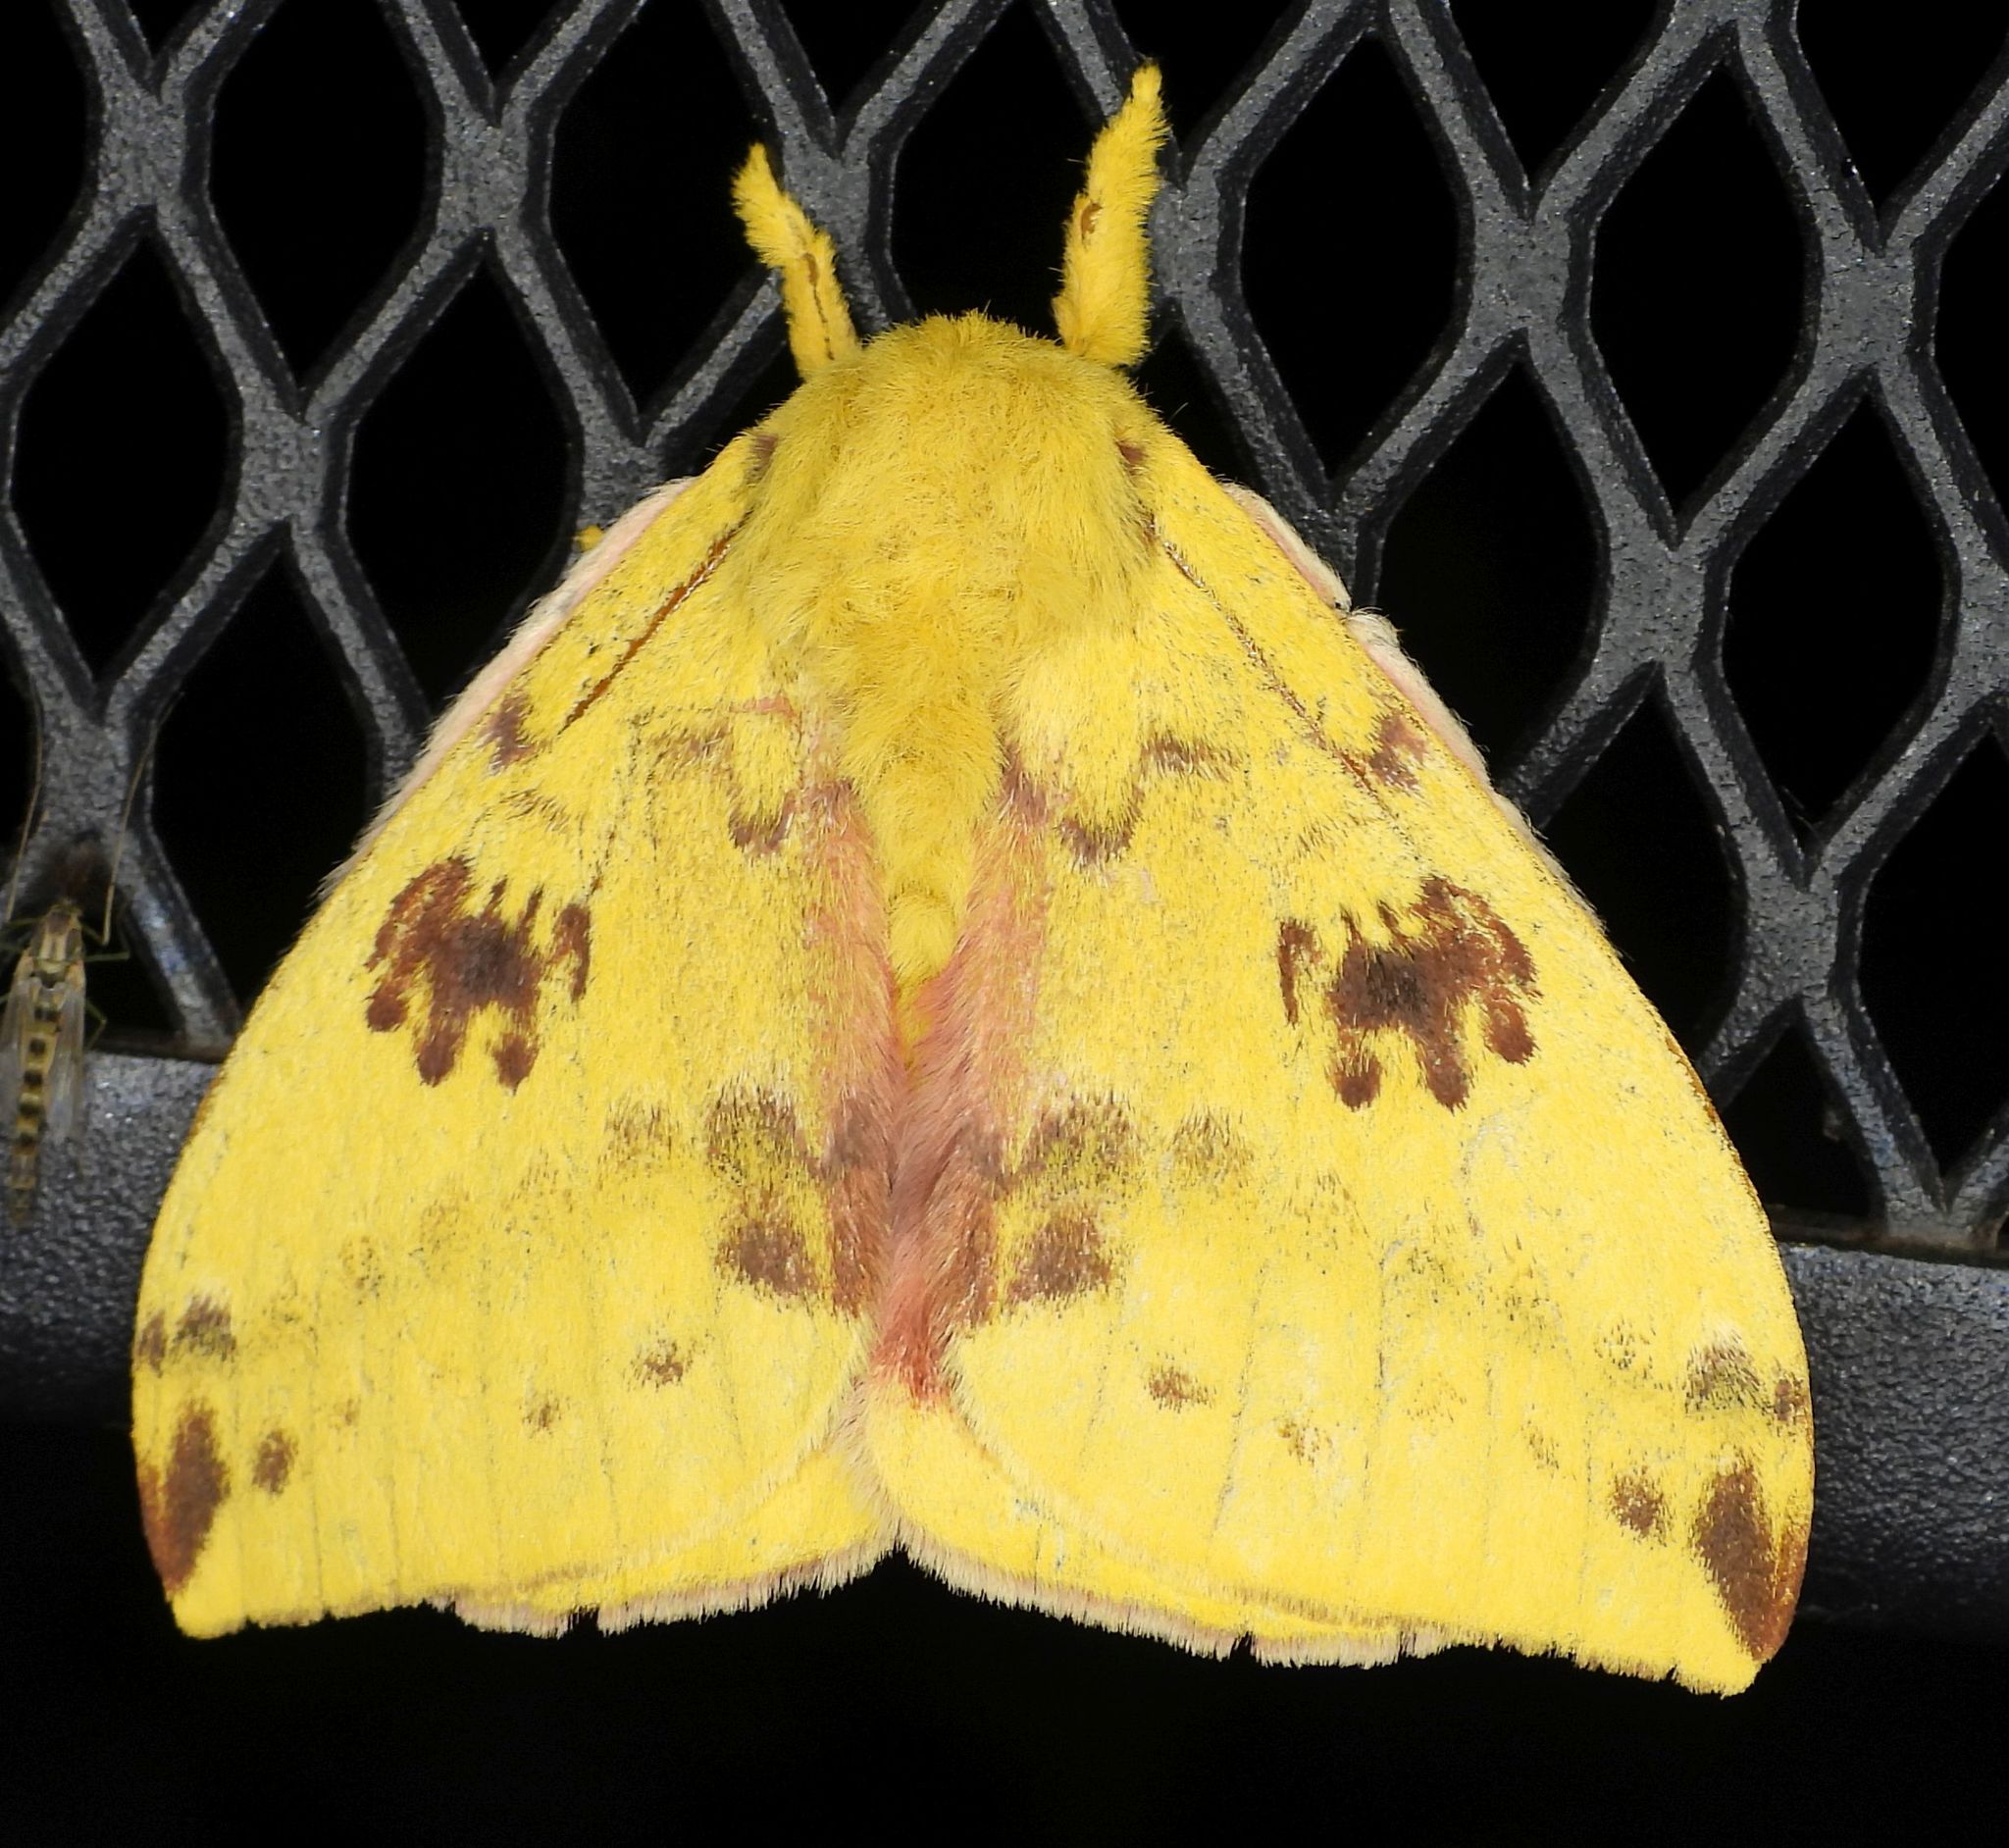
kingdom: Animalia
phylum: Arthropoda
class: Insecta
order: Lepidoptera
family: Saturniidae
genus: Automeris
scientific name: Automeris io
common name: Io moth
